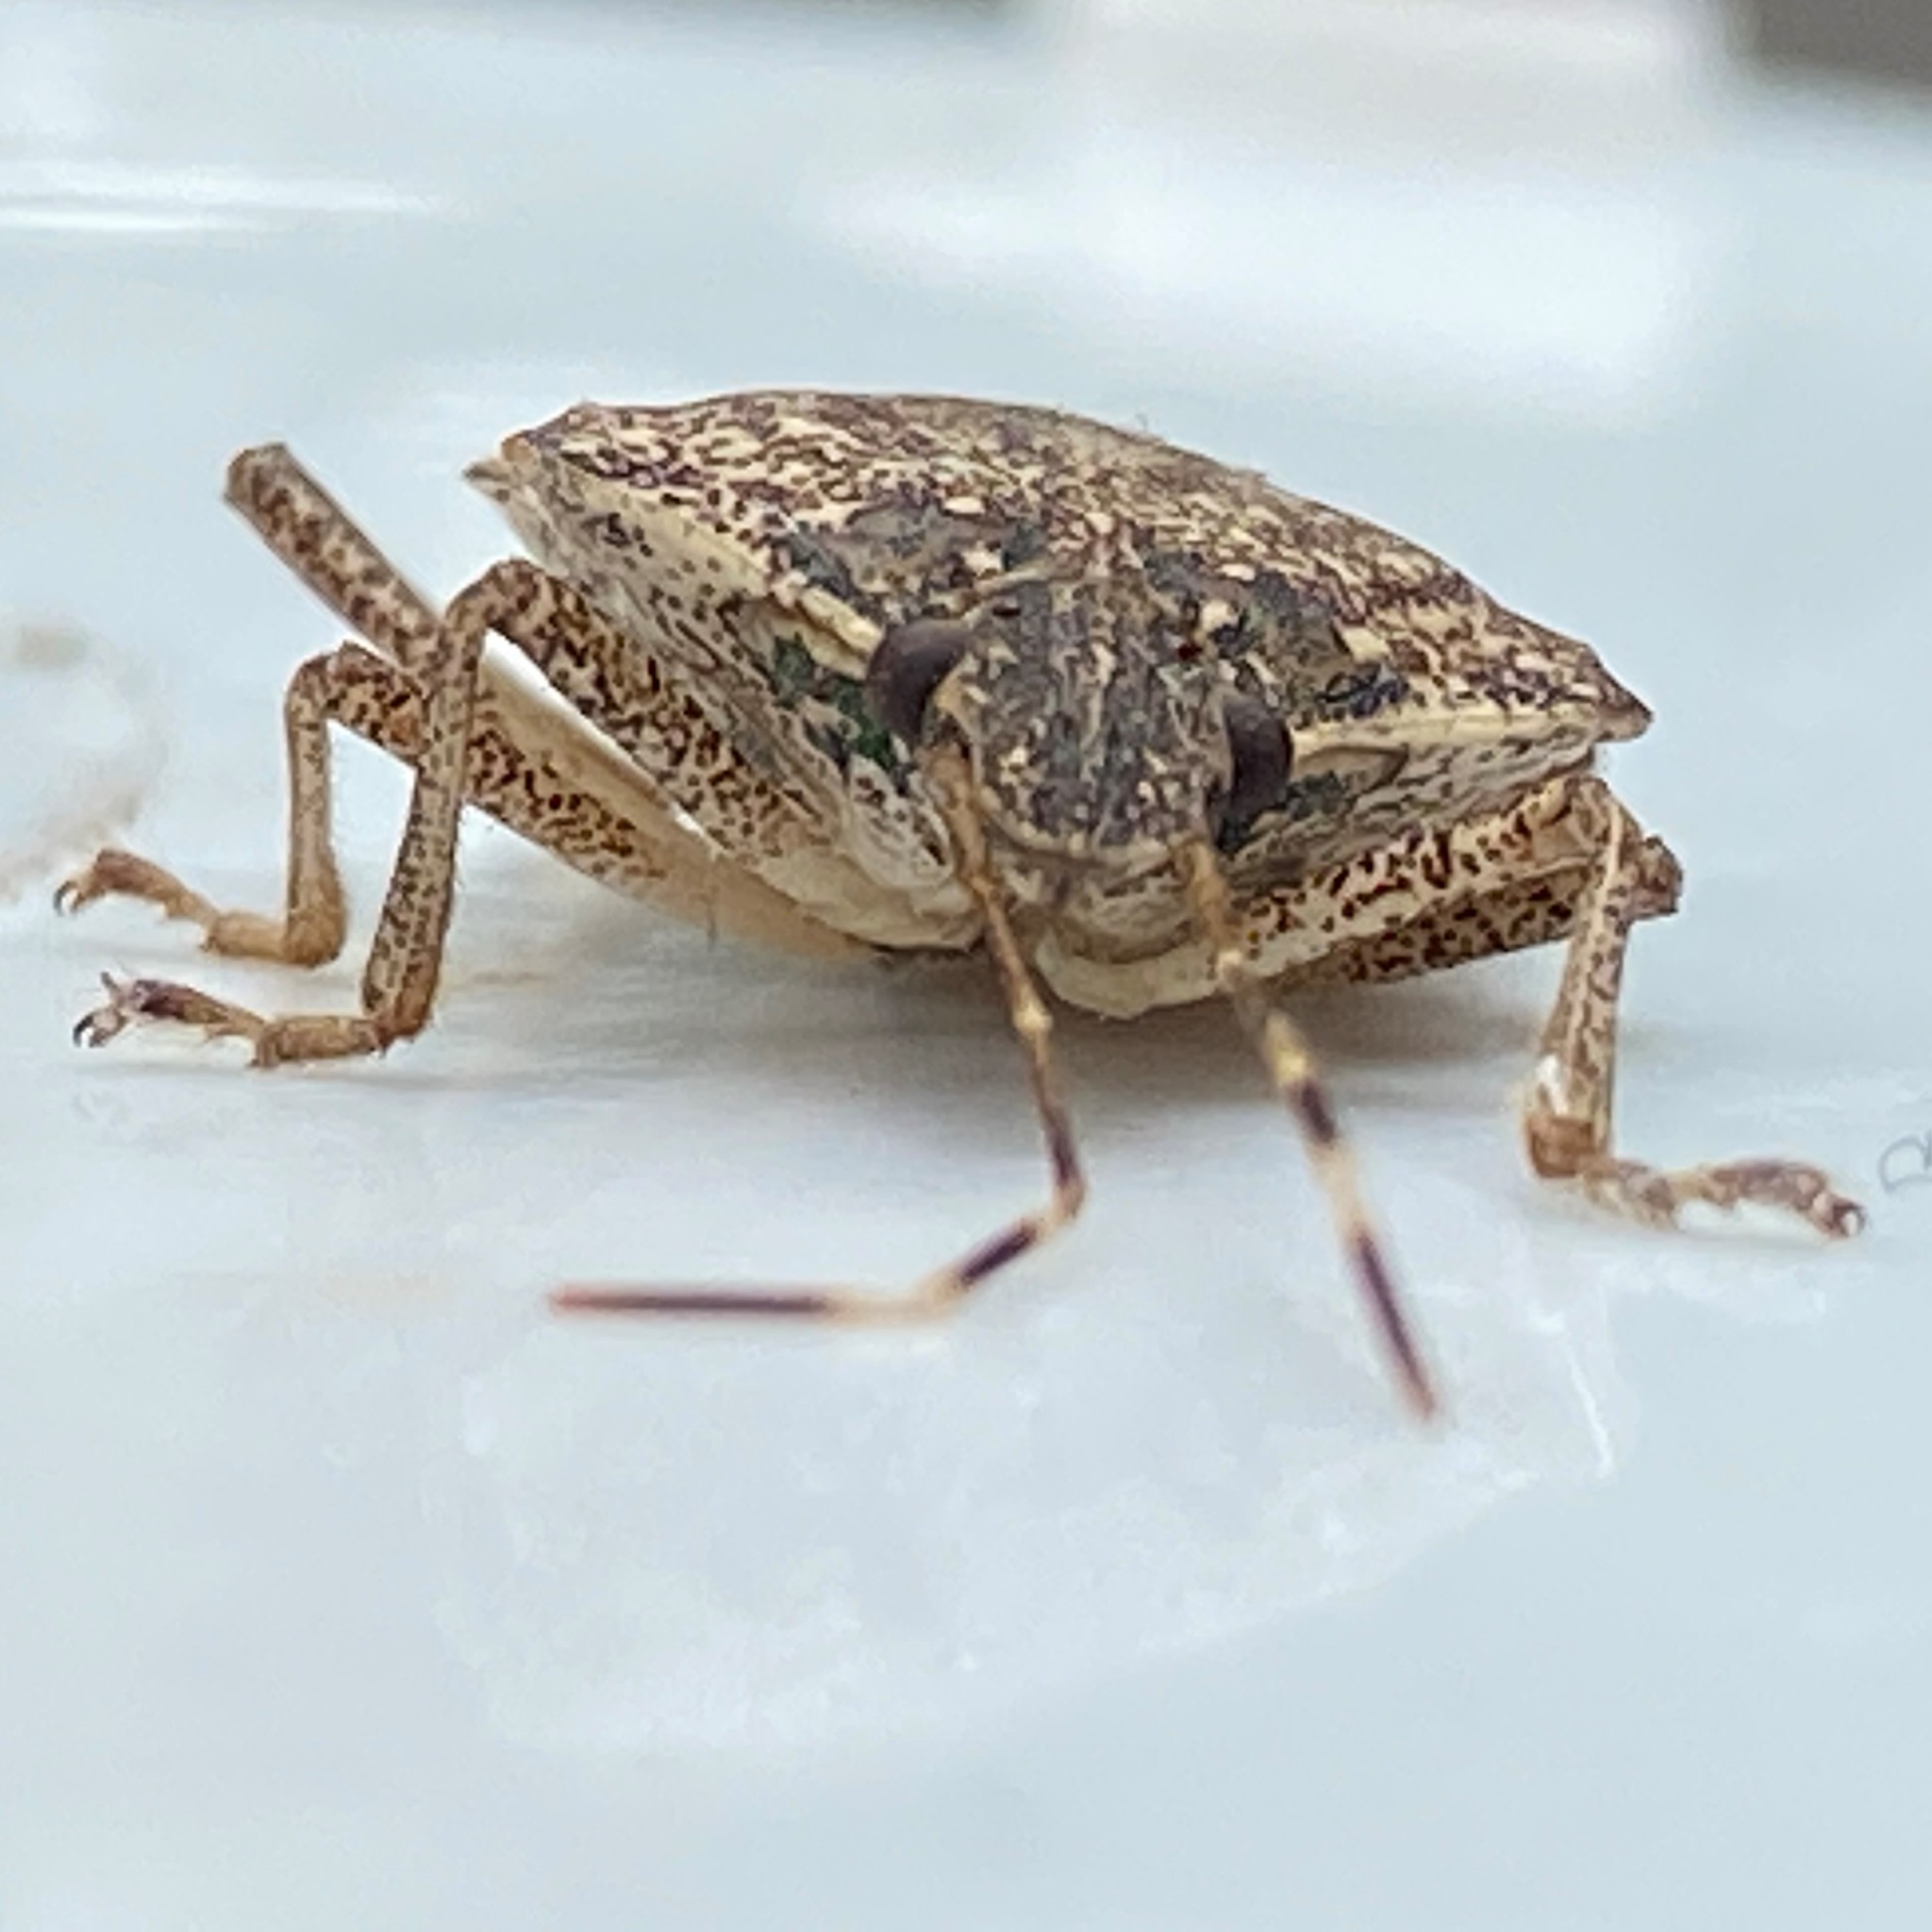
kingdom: Animalia
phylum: Arthropoda
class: Insecta
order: Hemiptera
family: Pentatomidae
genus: Halyomorpha
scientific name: Halyomorpha halys
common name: Brown marmorated stink bug
